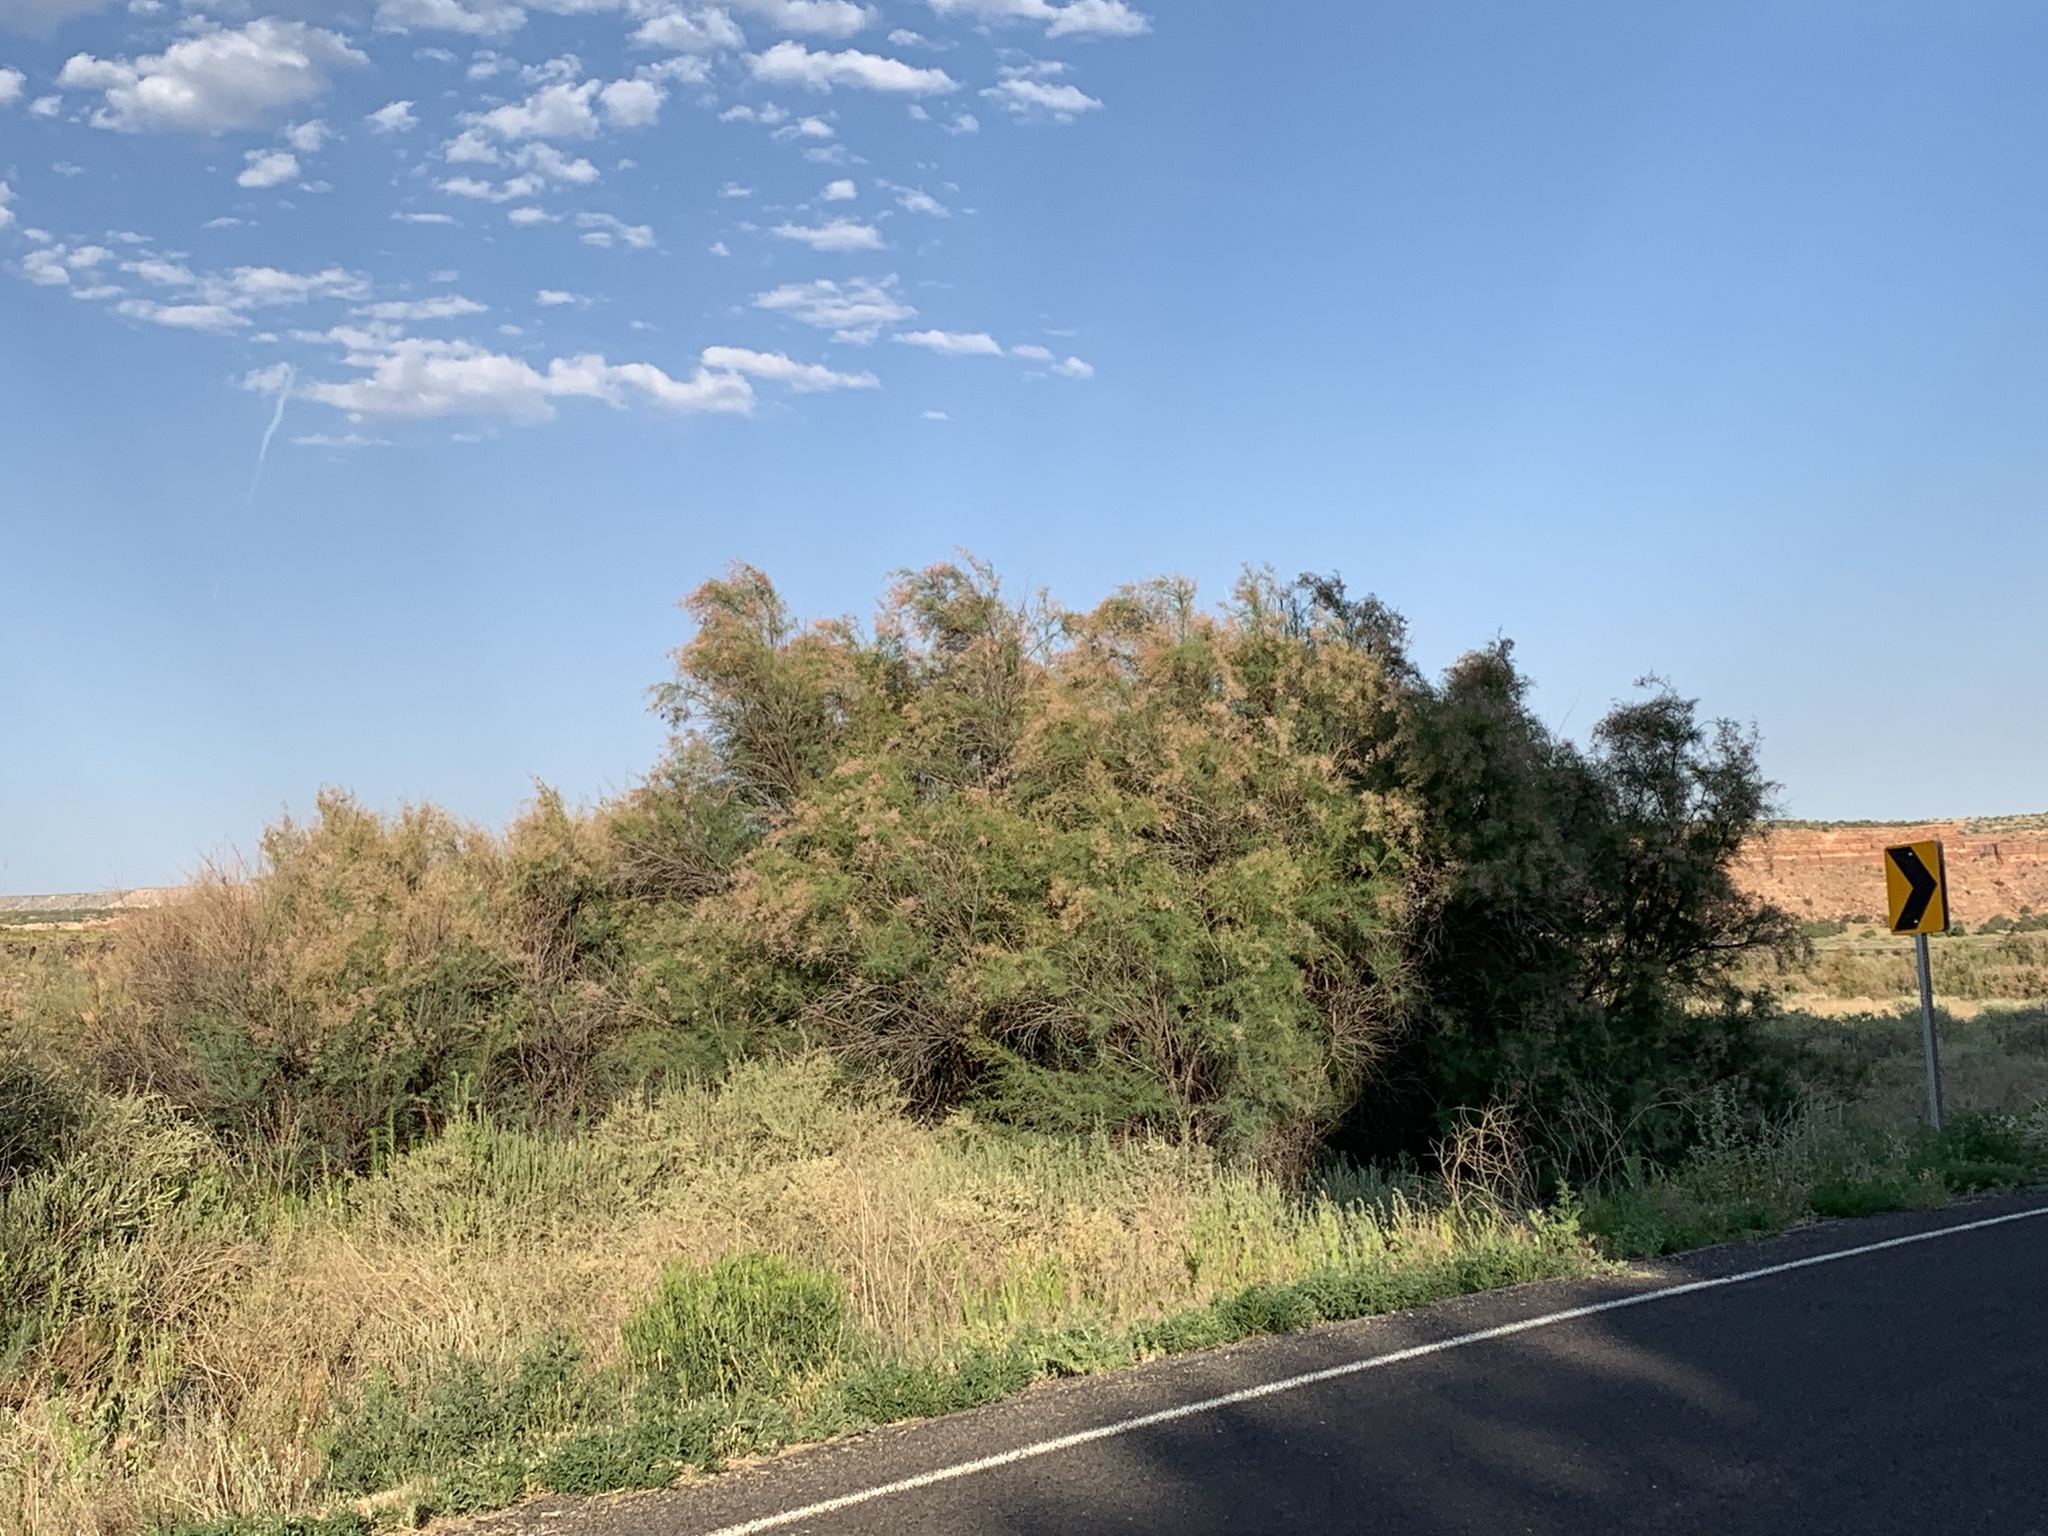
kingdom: Plantae
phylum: Tracheophyta
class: Magnoliopsida
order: Caryophyllales
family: Tamaricaceae
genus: Tamarix
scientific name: Tamarix
